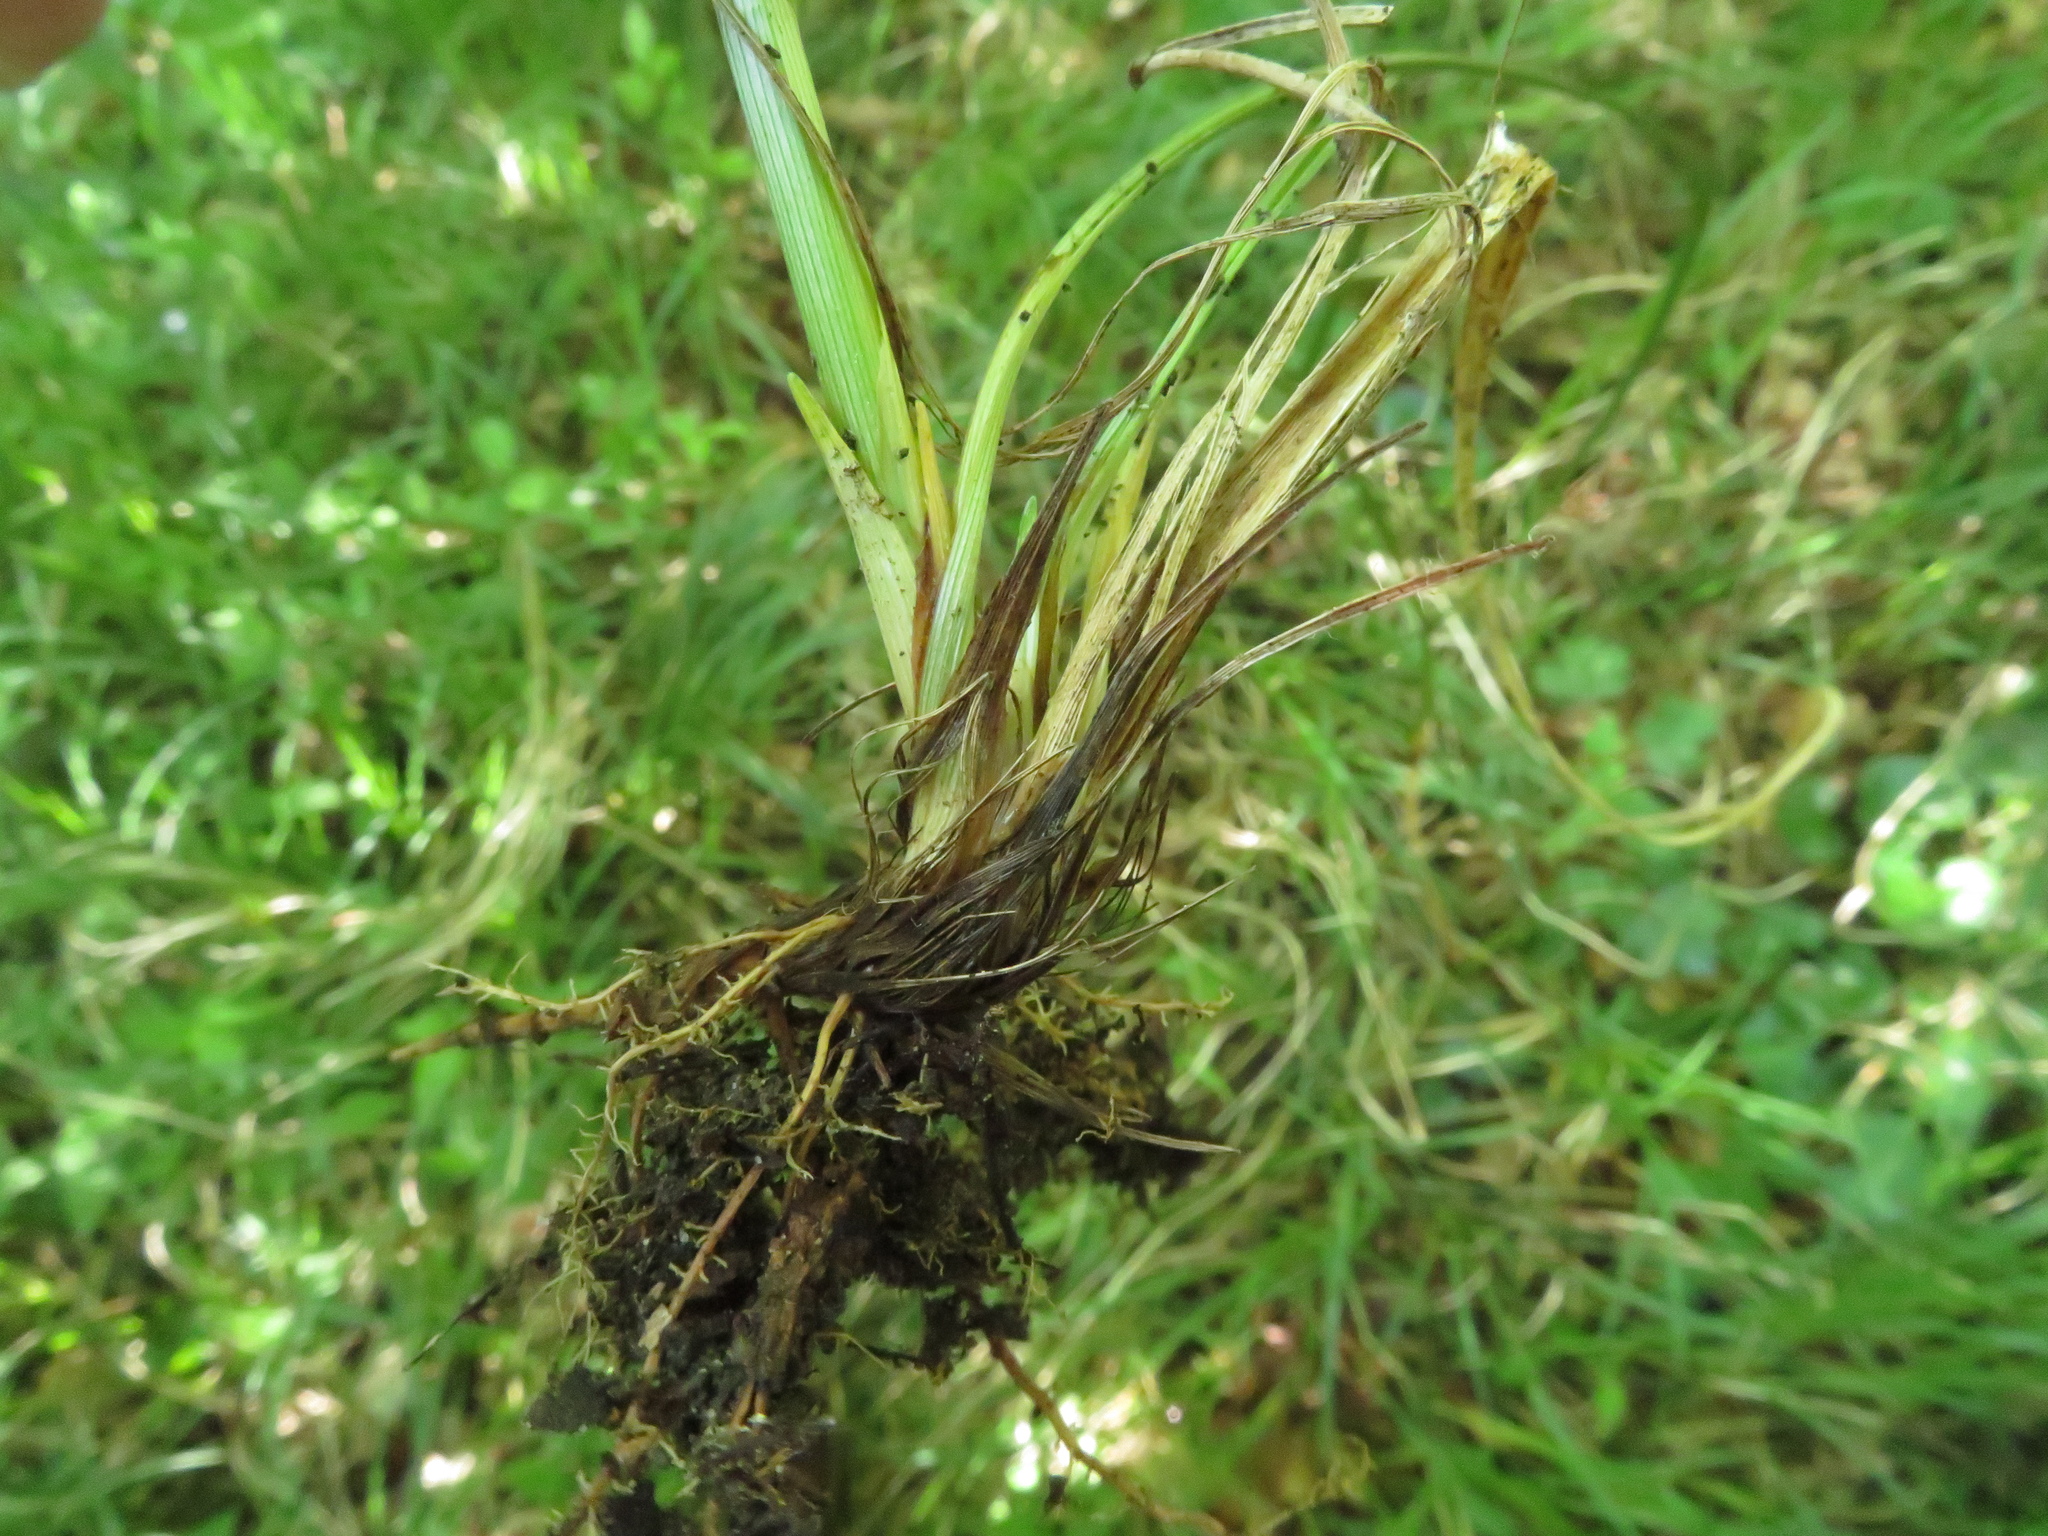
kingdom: Plantae
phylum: Tracheophyta
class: Liliopsida
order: Poales
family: Cyperaceae
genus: Carex
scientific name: Carex michelii
